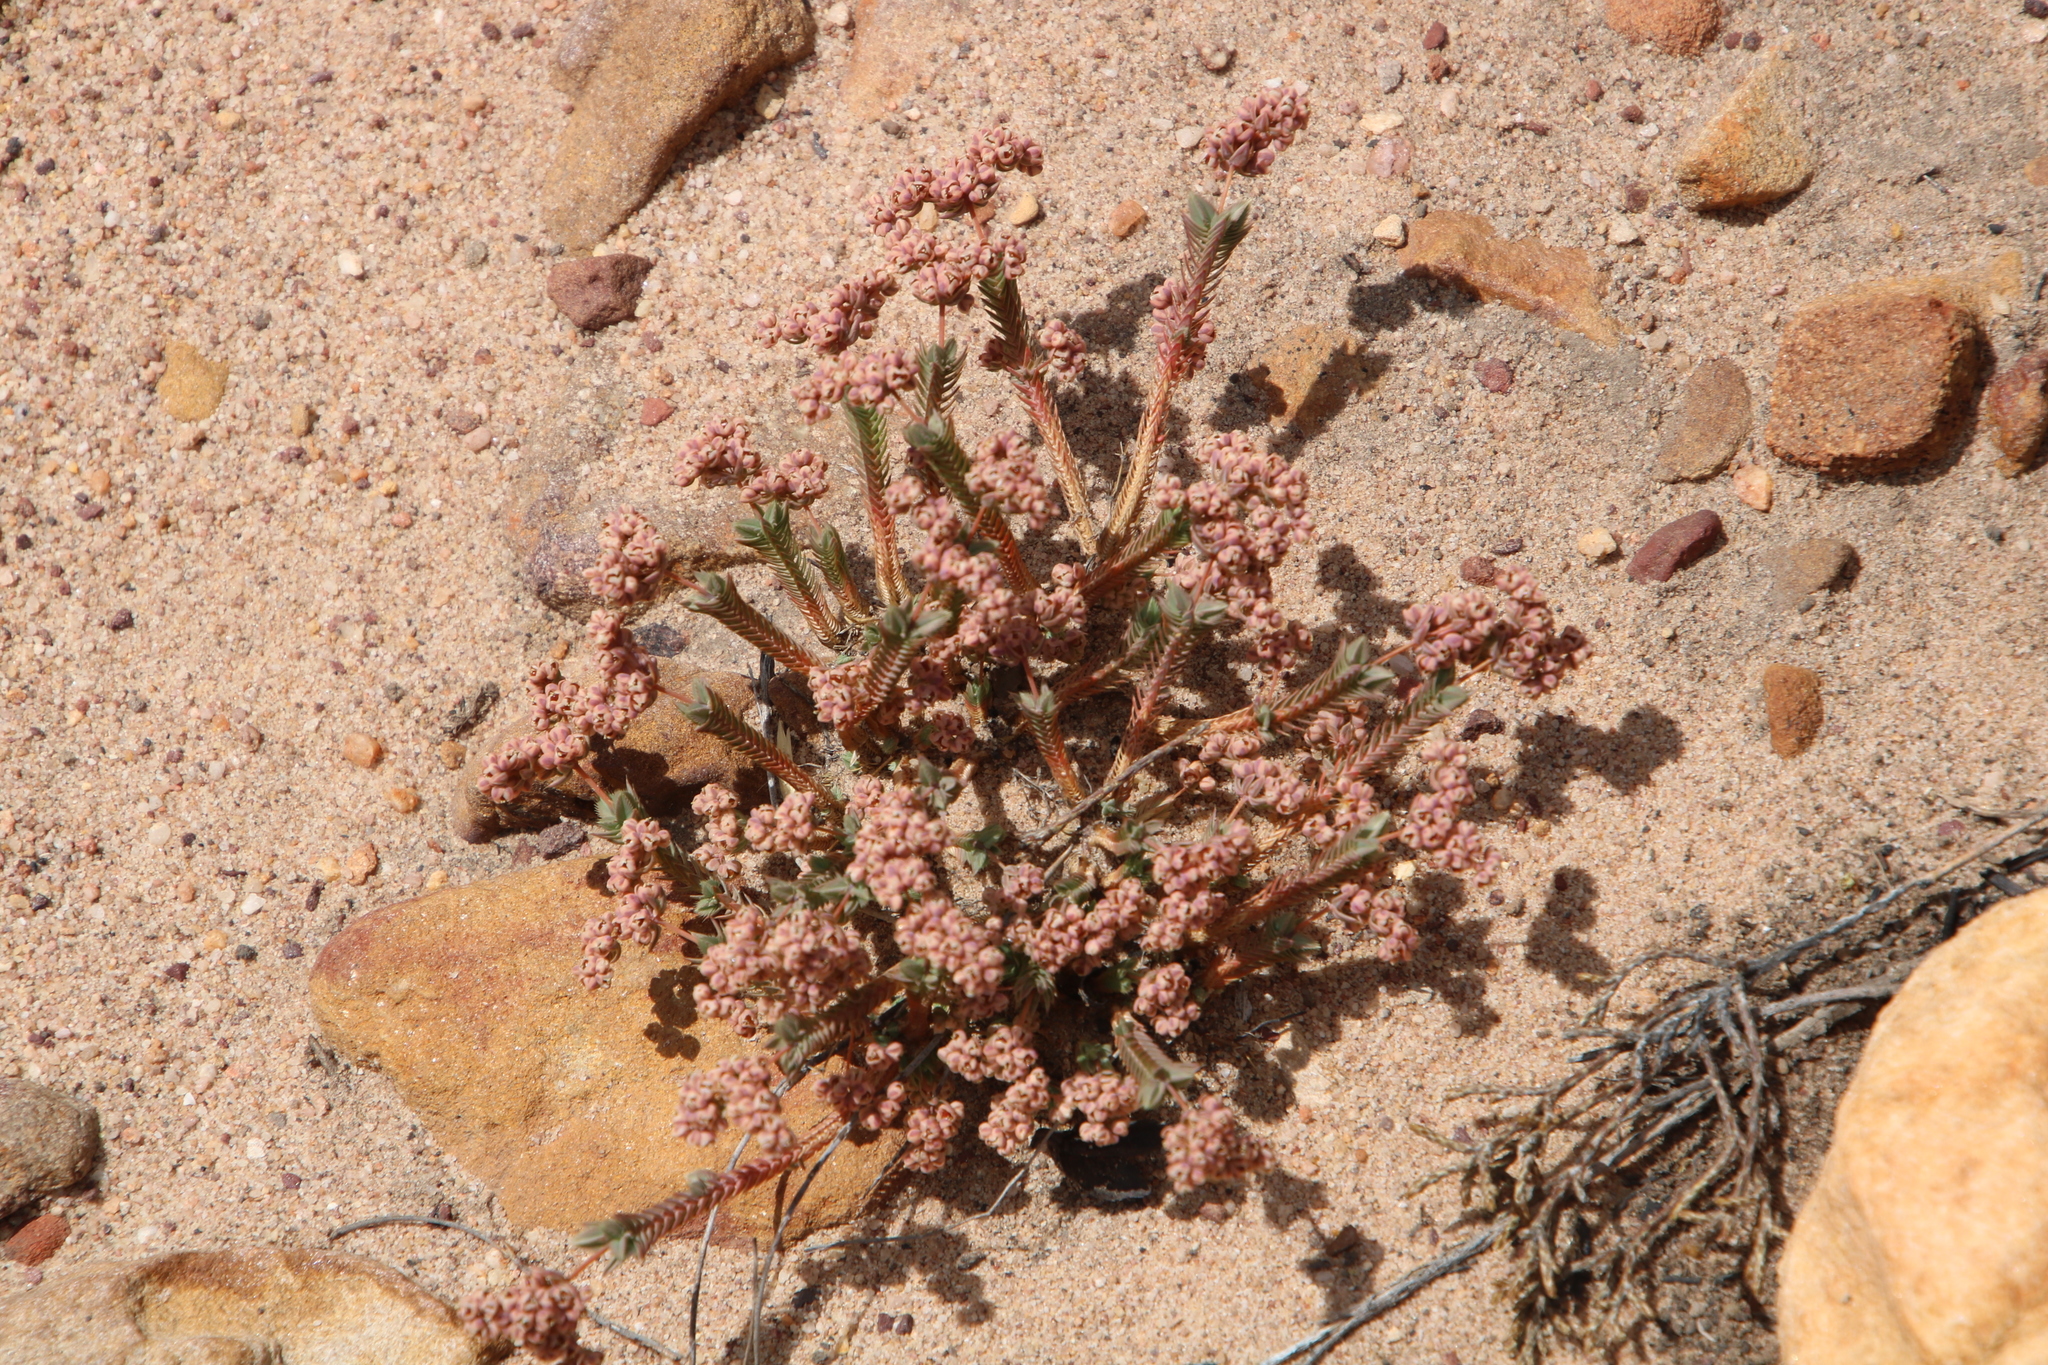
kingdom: Plantae
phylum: Tracheophyta
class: Magnoliopsida
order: Caryophyllales
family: Molluginaceae
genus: Psammotropha
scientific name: Psammotropha quadrangularis
